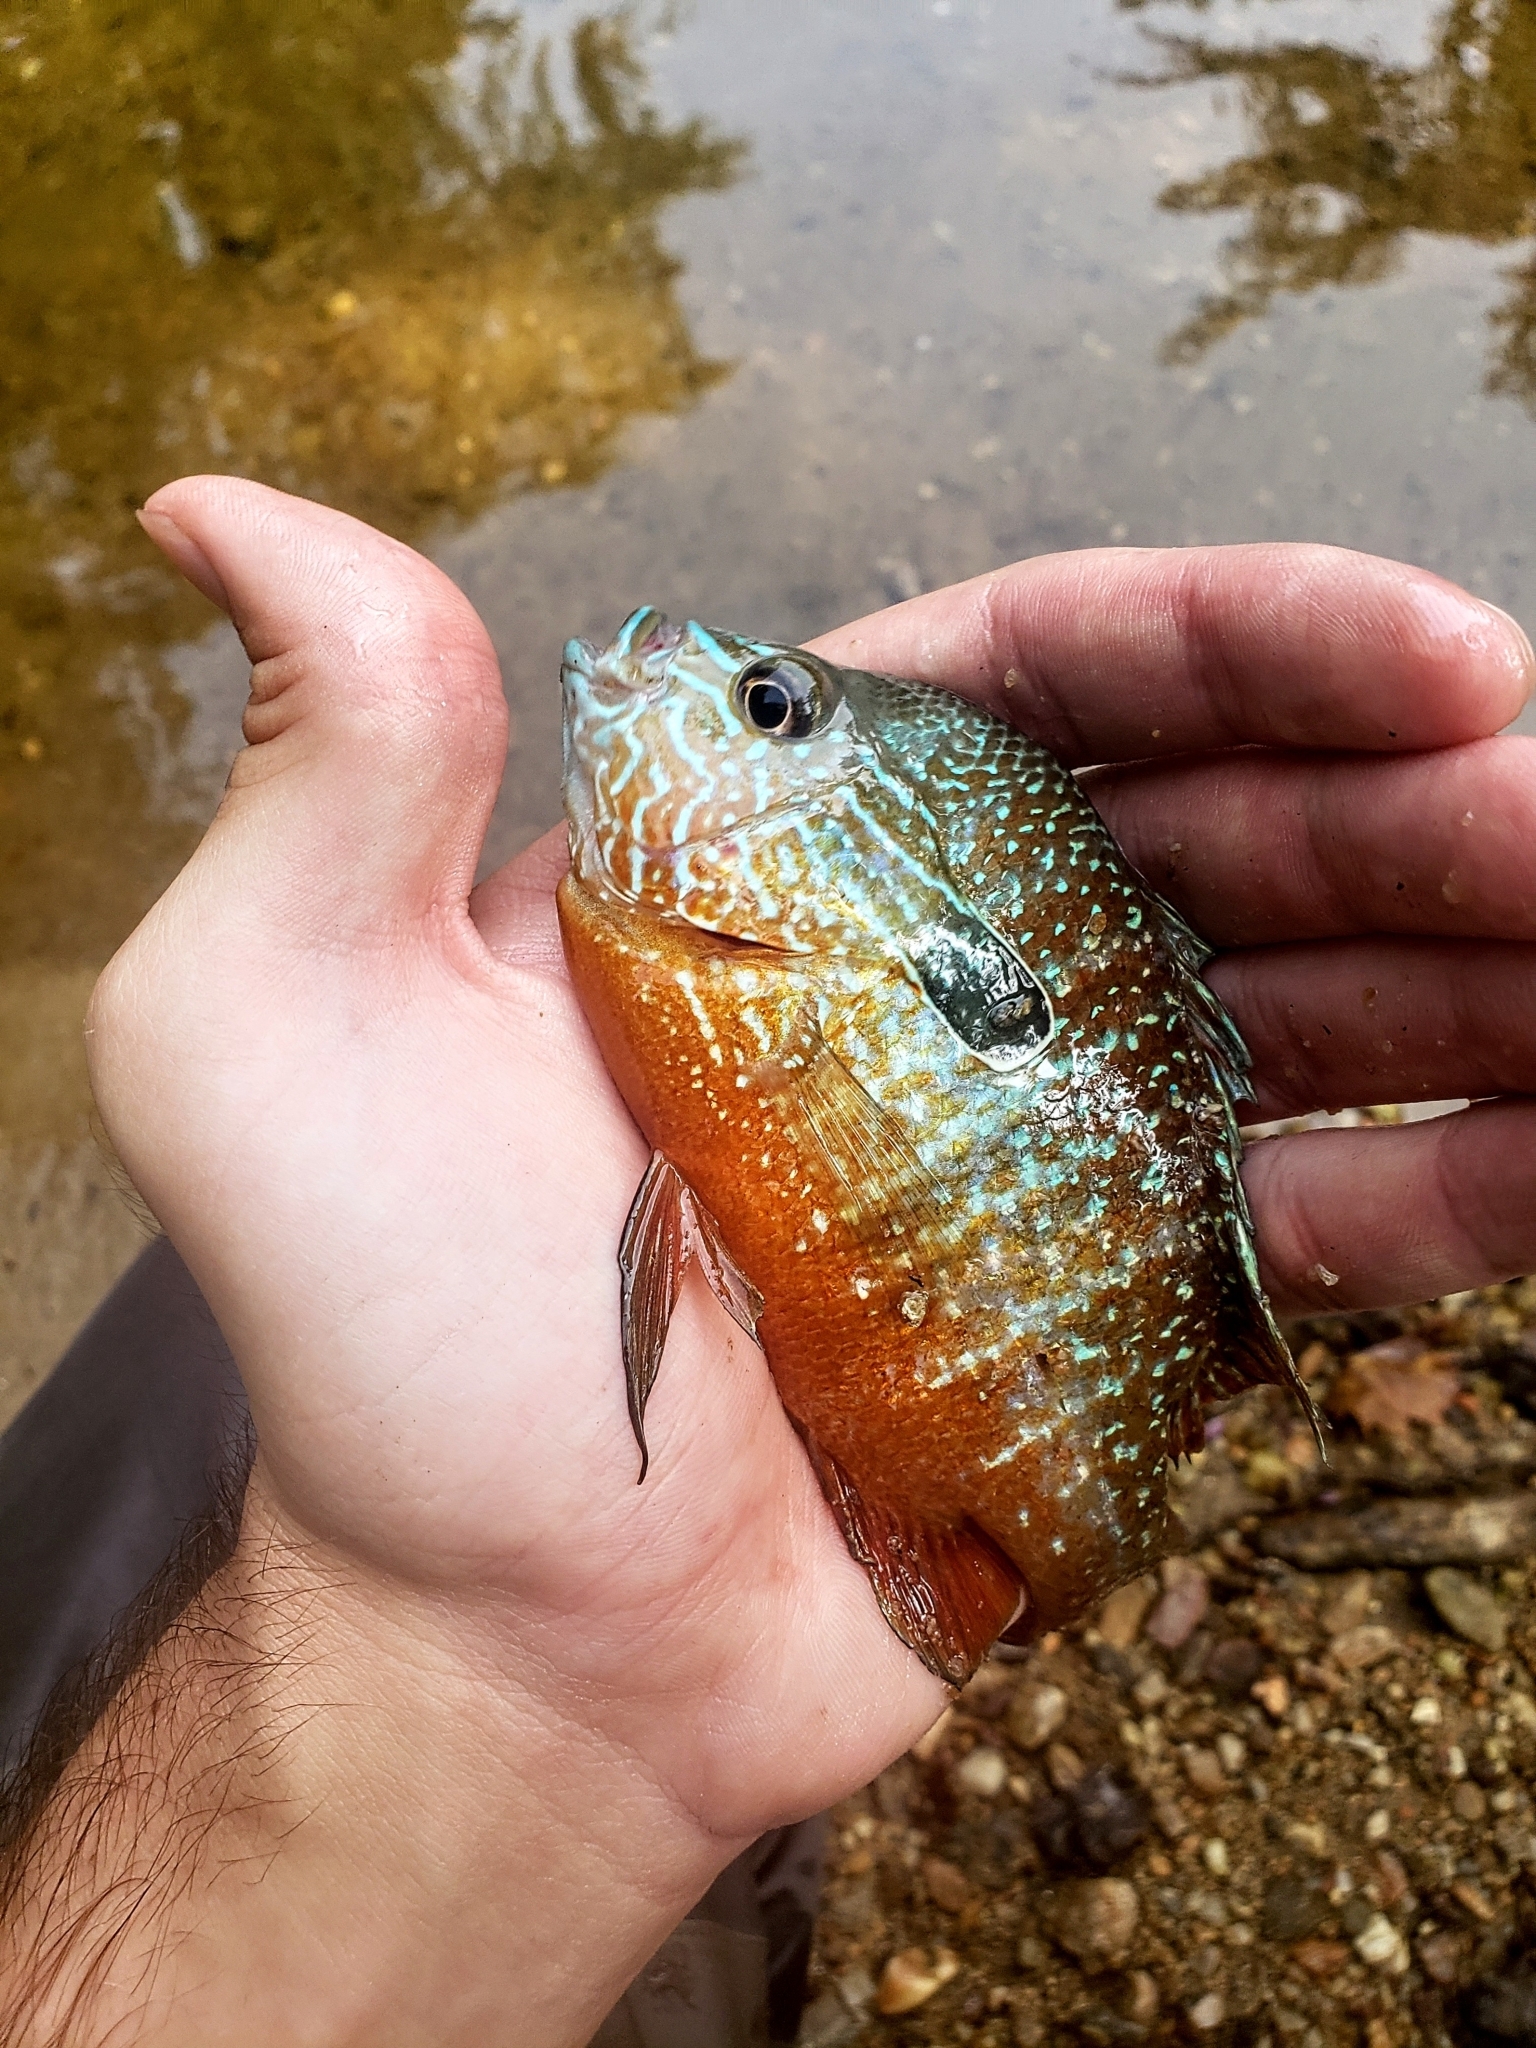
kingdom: Animalia
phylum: Chordata
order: Perciformes
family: Centrarchidae
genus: Lepomis
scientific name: Lepomis megalotis
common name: Longear sunfish
